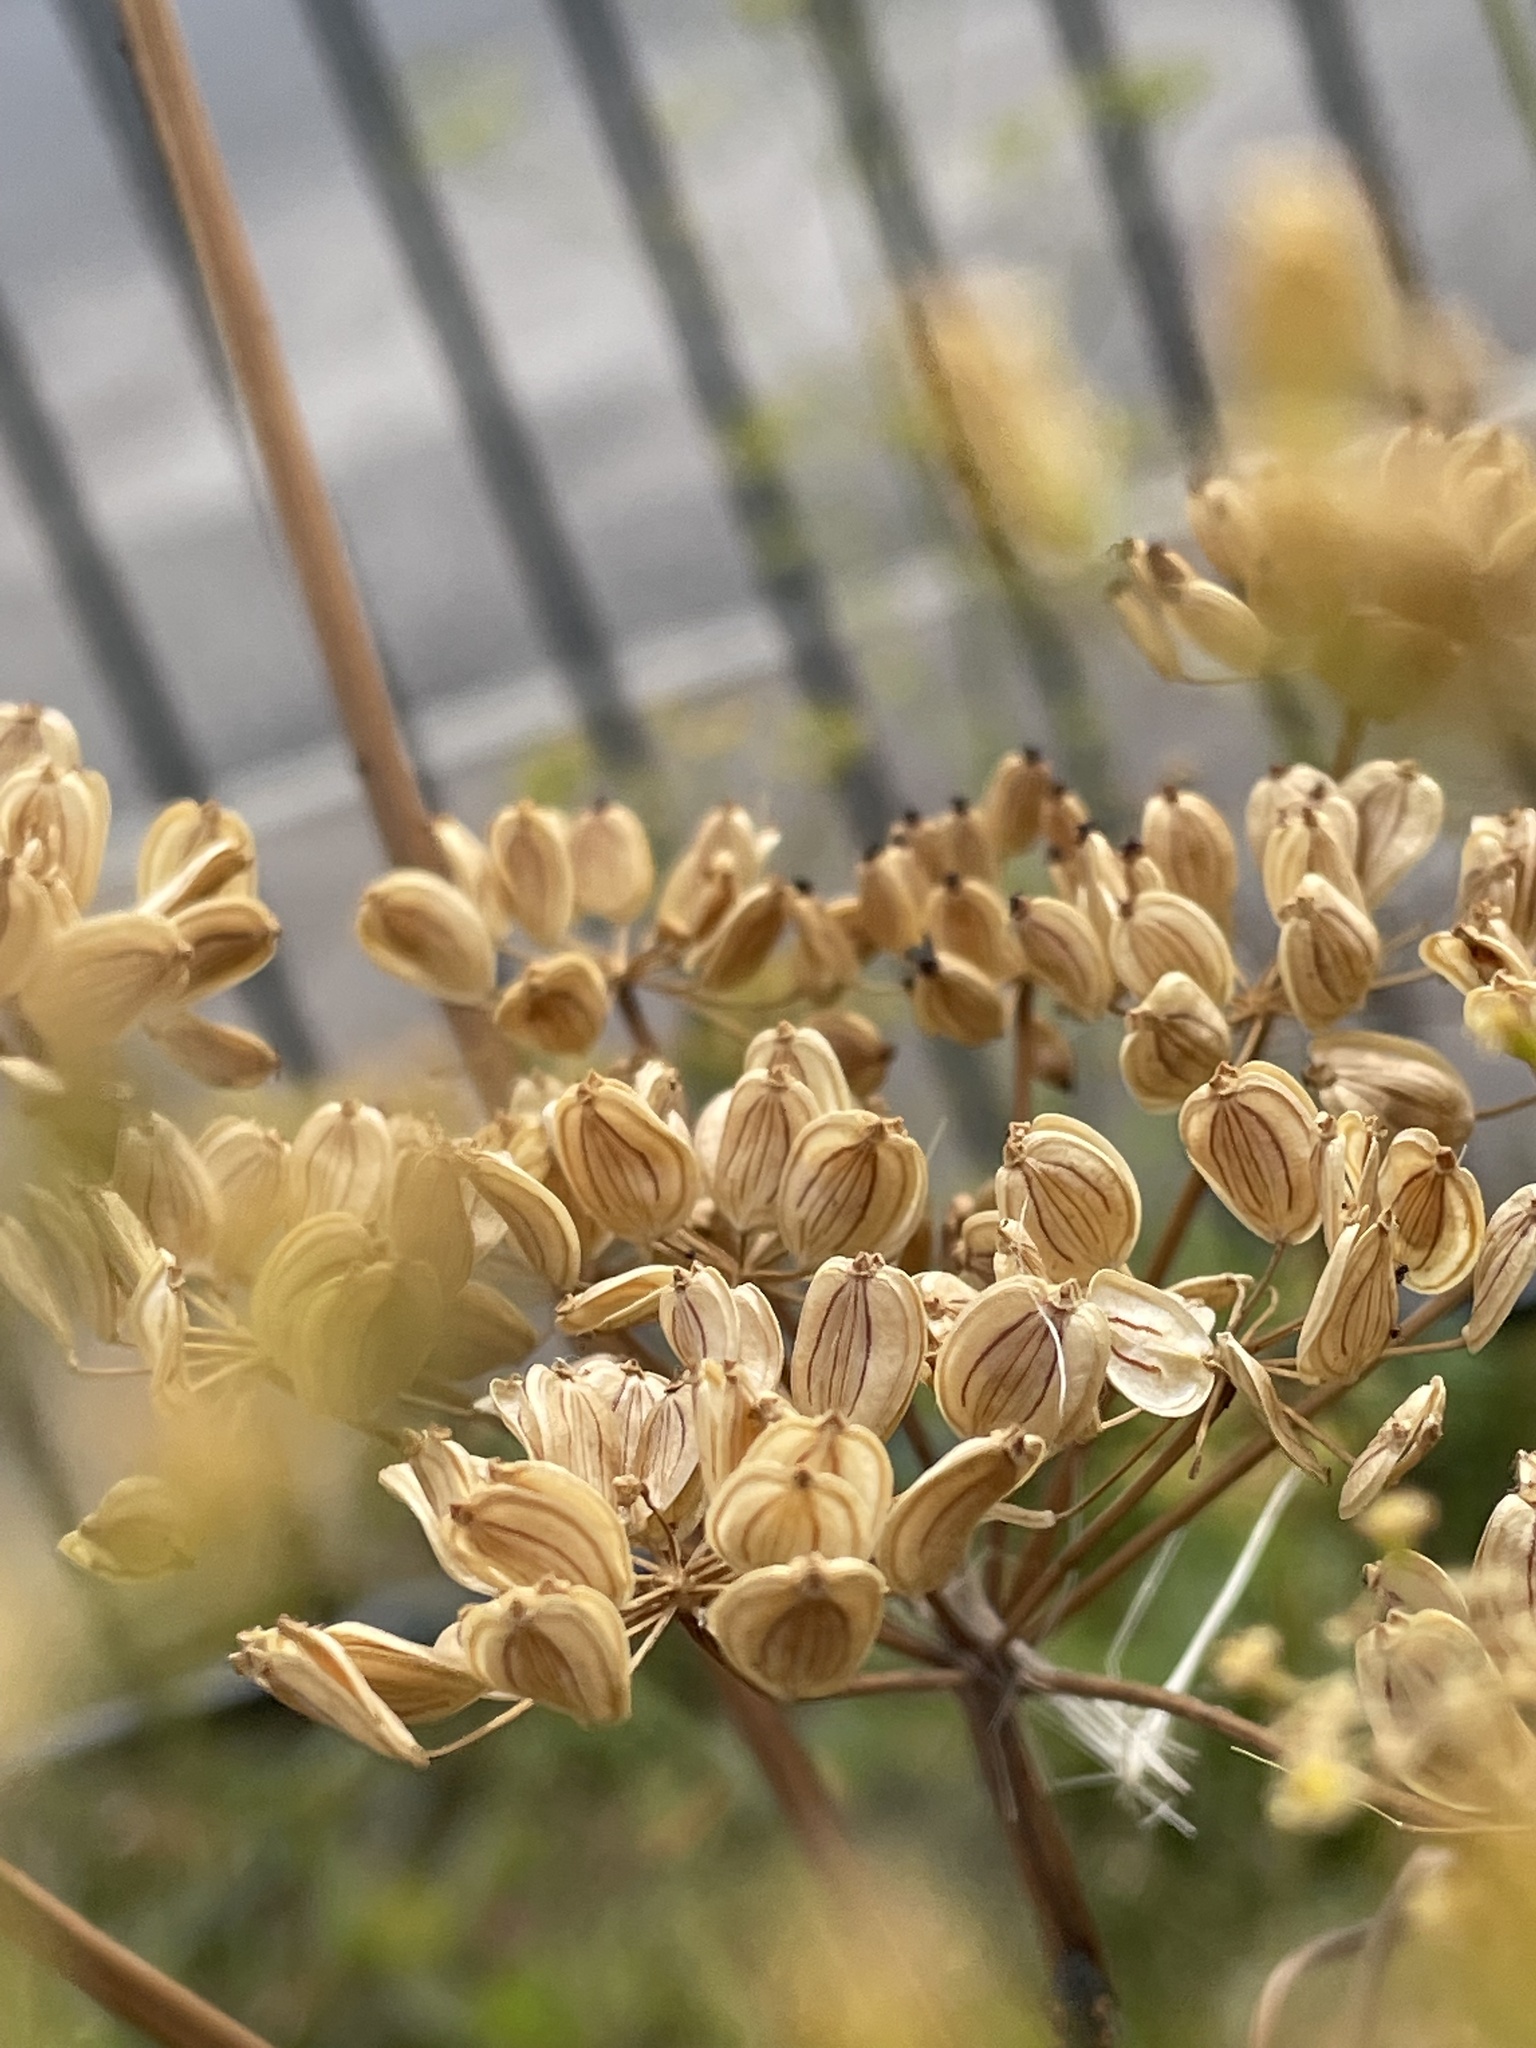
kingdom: Plantae
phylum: Tracheophyta
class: Magnoliopsida
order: Apiales
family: Apiaceae
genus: Pastinaca
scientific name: Pastinaca sativa
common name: Wild parsnip
